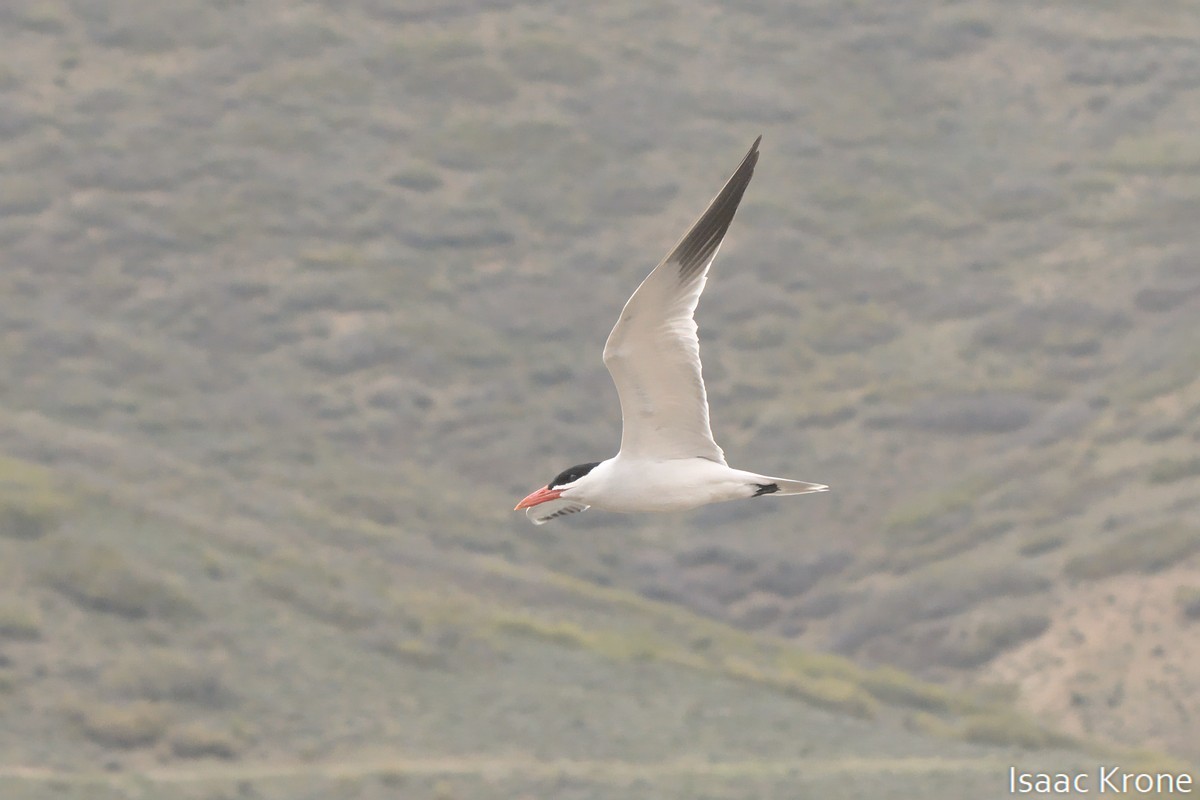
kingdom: Animalia
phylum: Chordata
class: Aves
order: Charadriiformes
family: Laridae
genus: Hydroprogne
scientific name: Hydroprogne caspia
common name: Caspian tern
